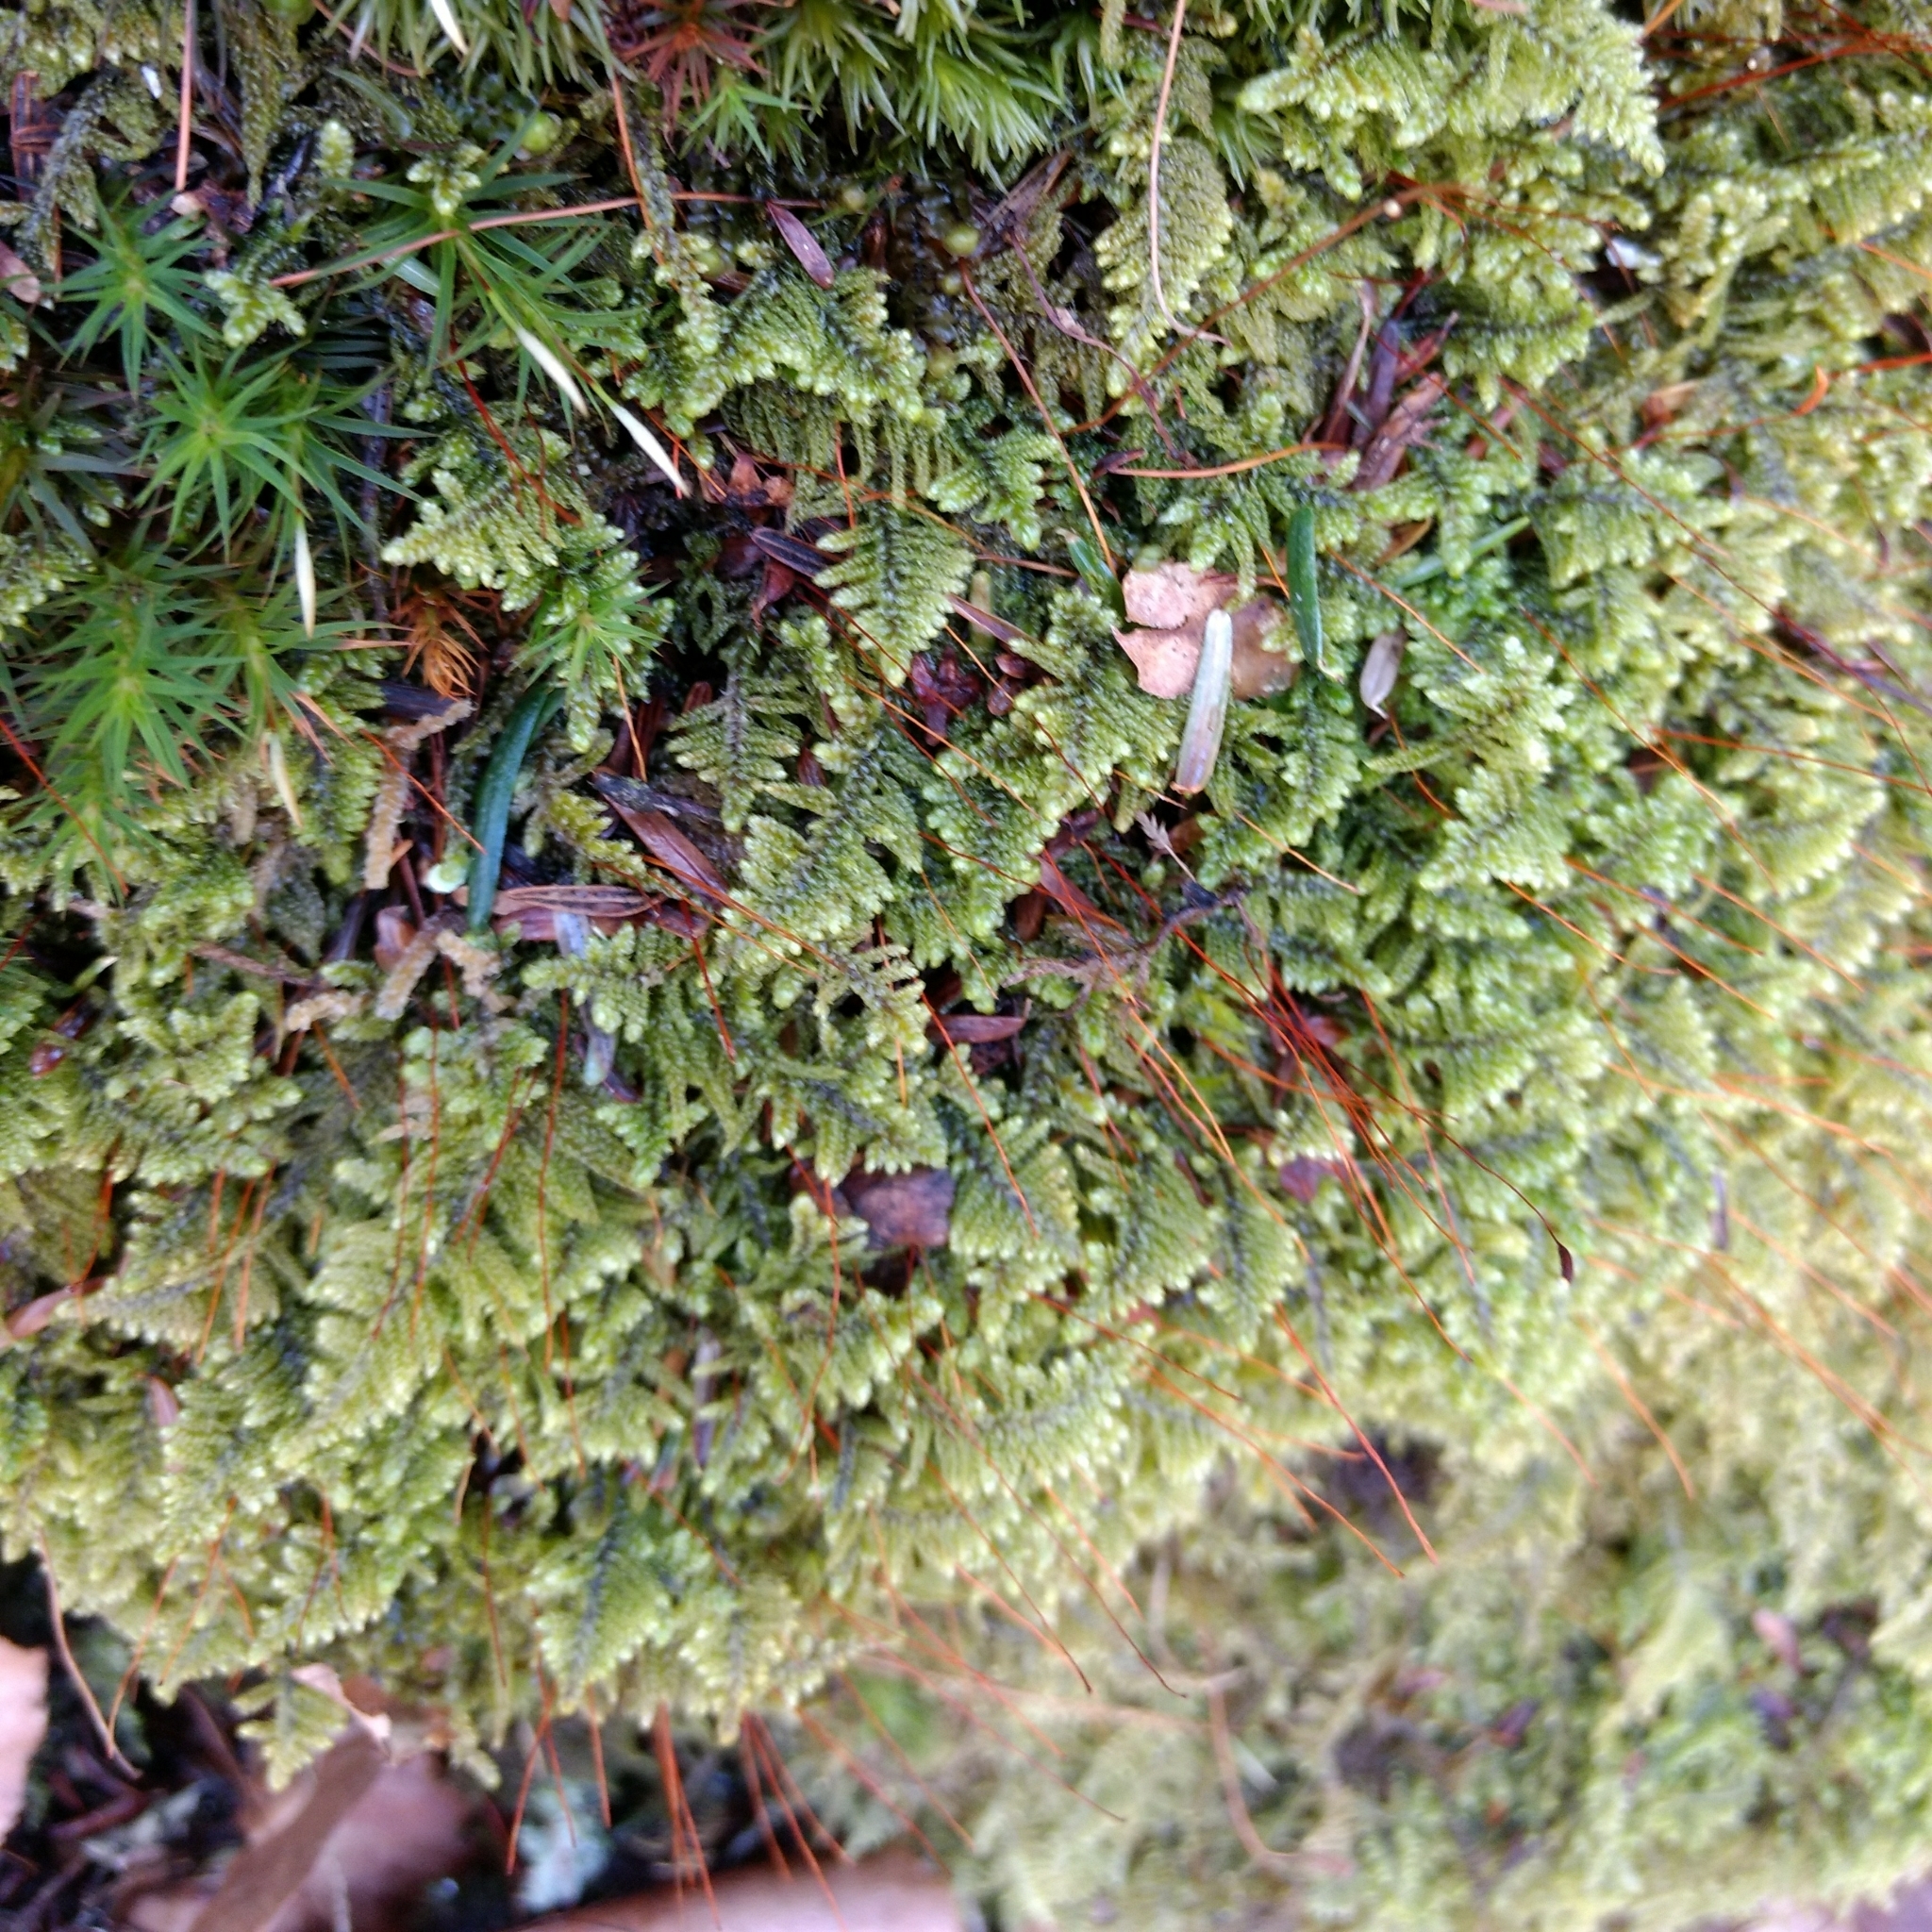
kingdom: Plantae
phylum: Bryophyta
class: Bryopsida
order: Hypnales
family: Callicladiaceae
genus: Callicladium
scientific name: Callicladium imponens
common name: Brocade moss
